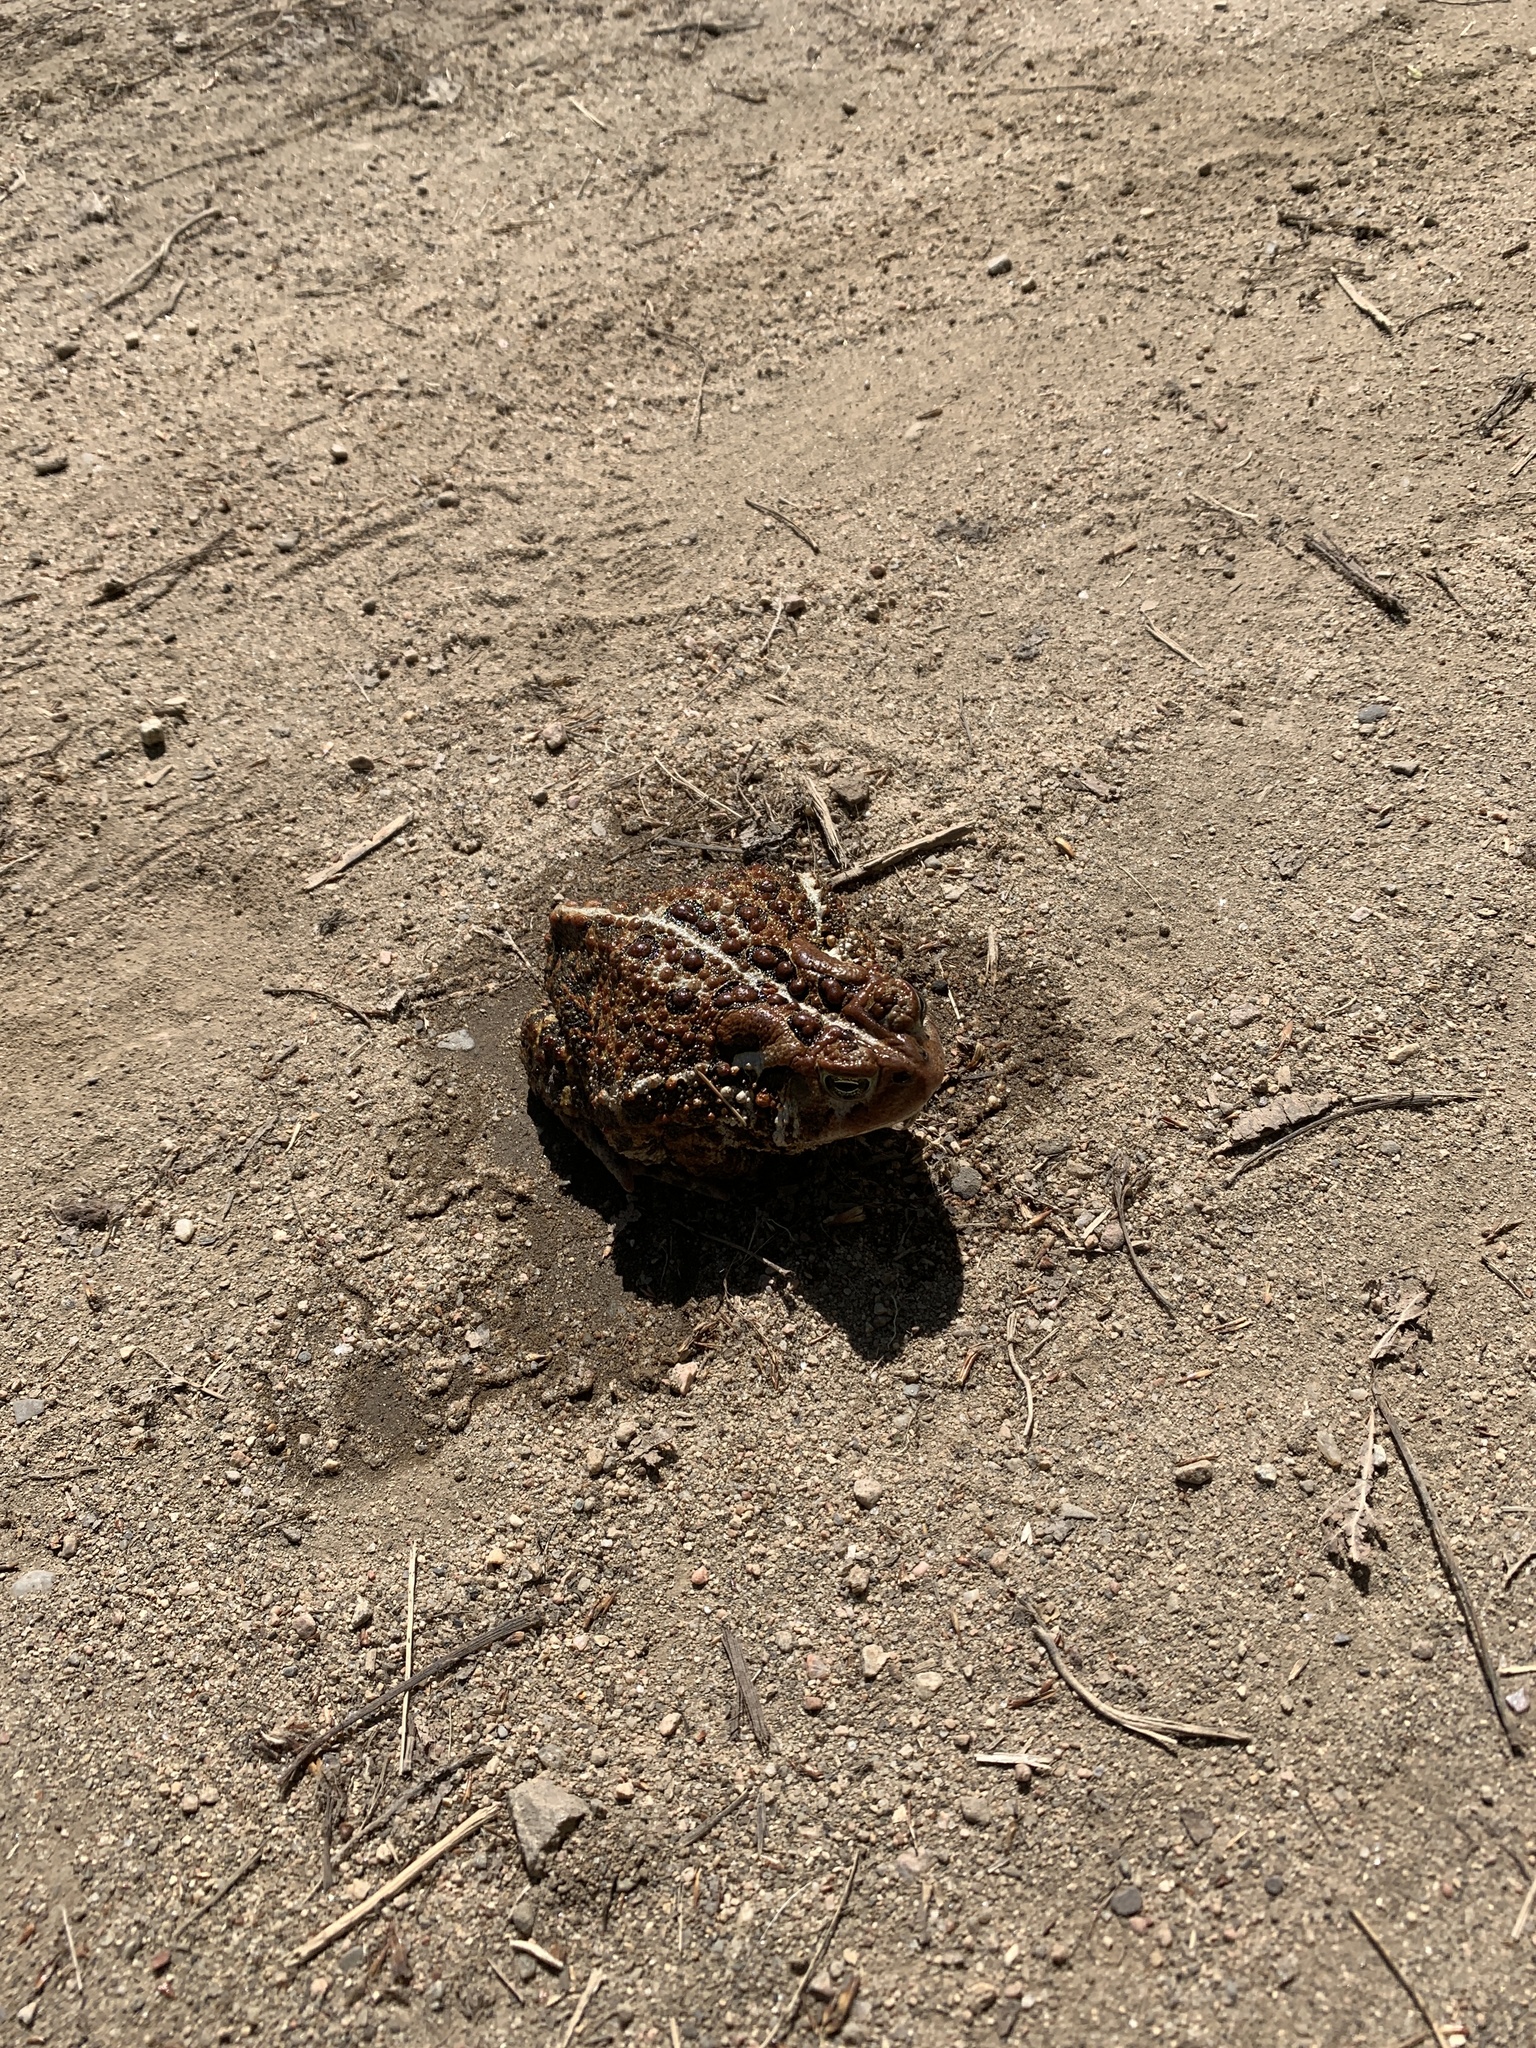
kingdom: Animalia
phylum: Chordata
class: Amphibia
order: Anura
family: Bufonidae
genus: Anaxyrus
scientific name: Anaxyrus americanus
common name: American toad
